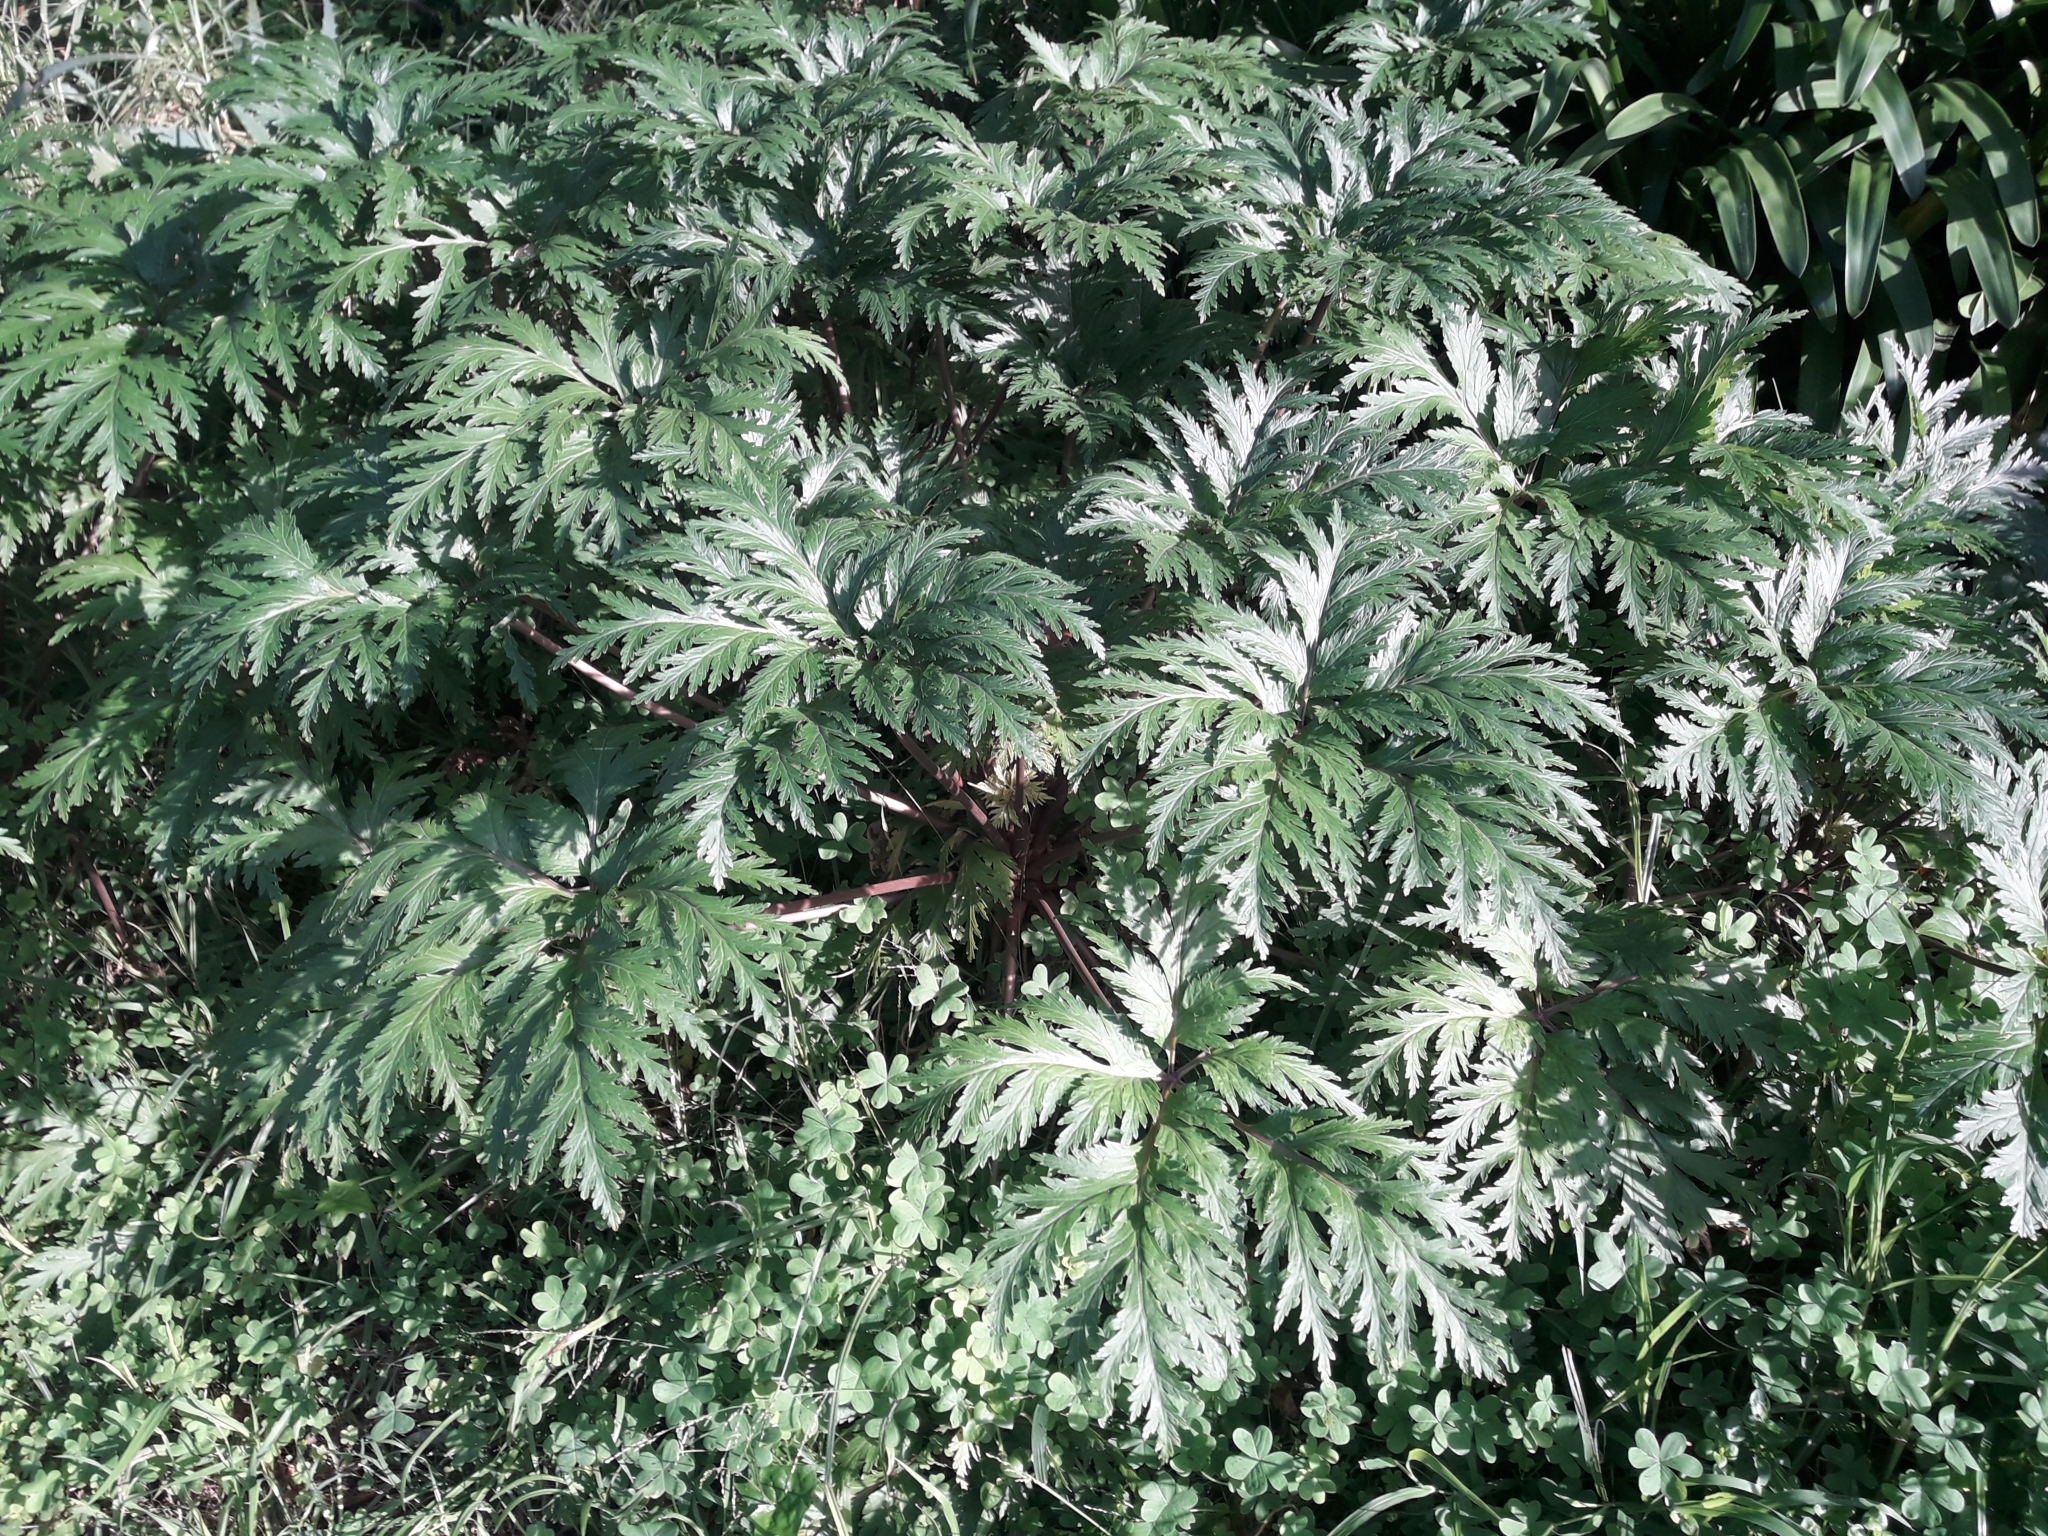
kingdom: Plantae
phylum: Tracheophyta
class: Magnoliopsida
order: Geraniales
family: Geraniaceae
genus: Geranium
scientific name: Geranium maderense
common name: Giant herb-robert
